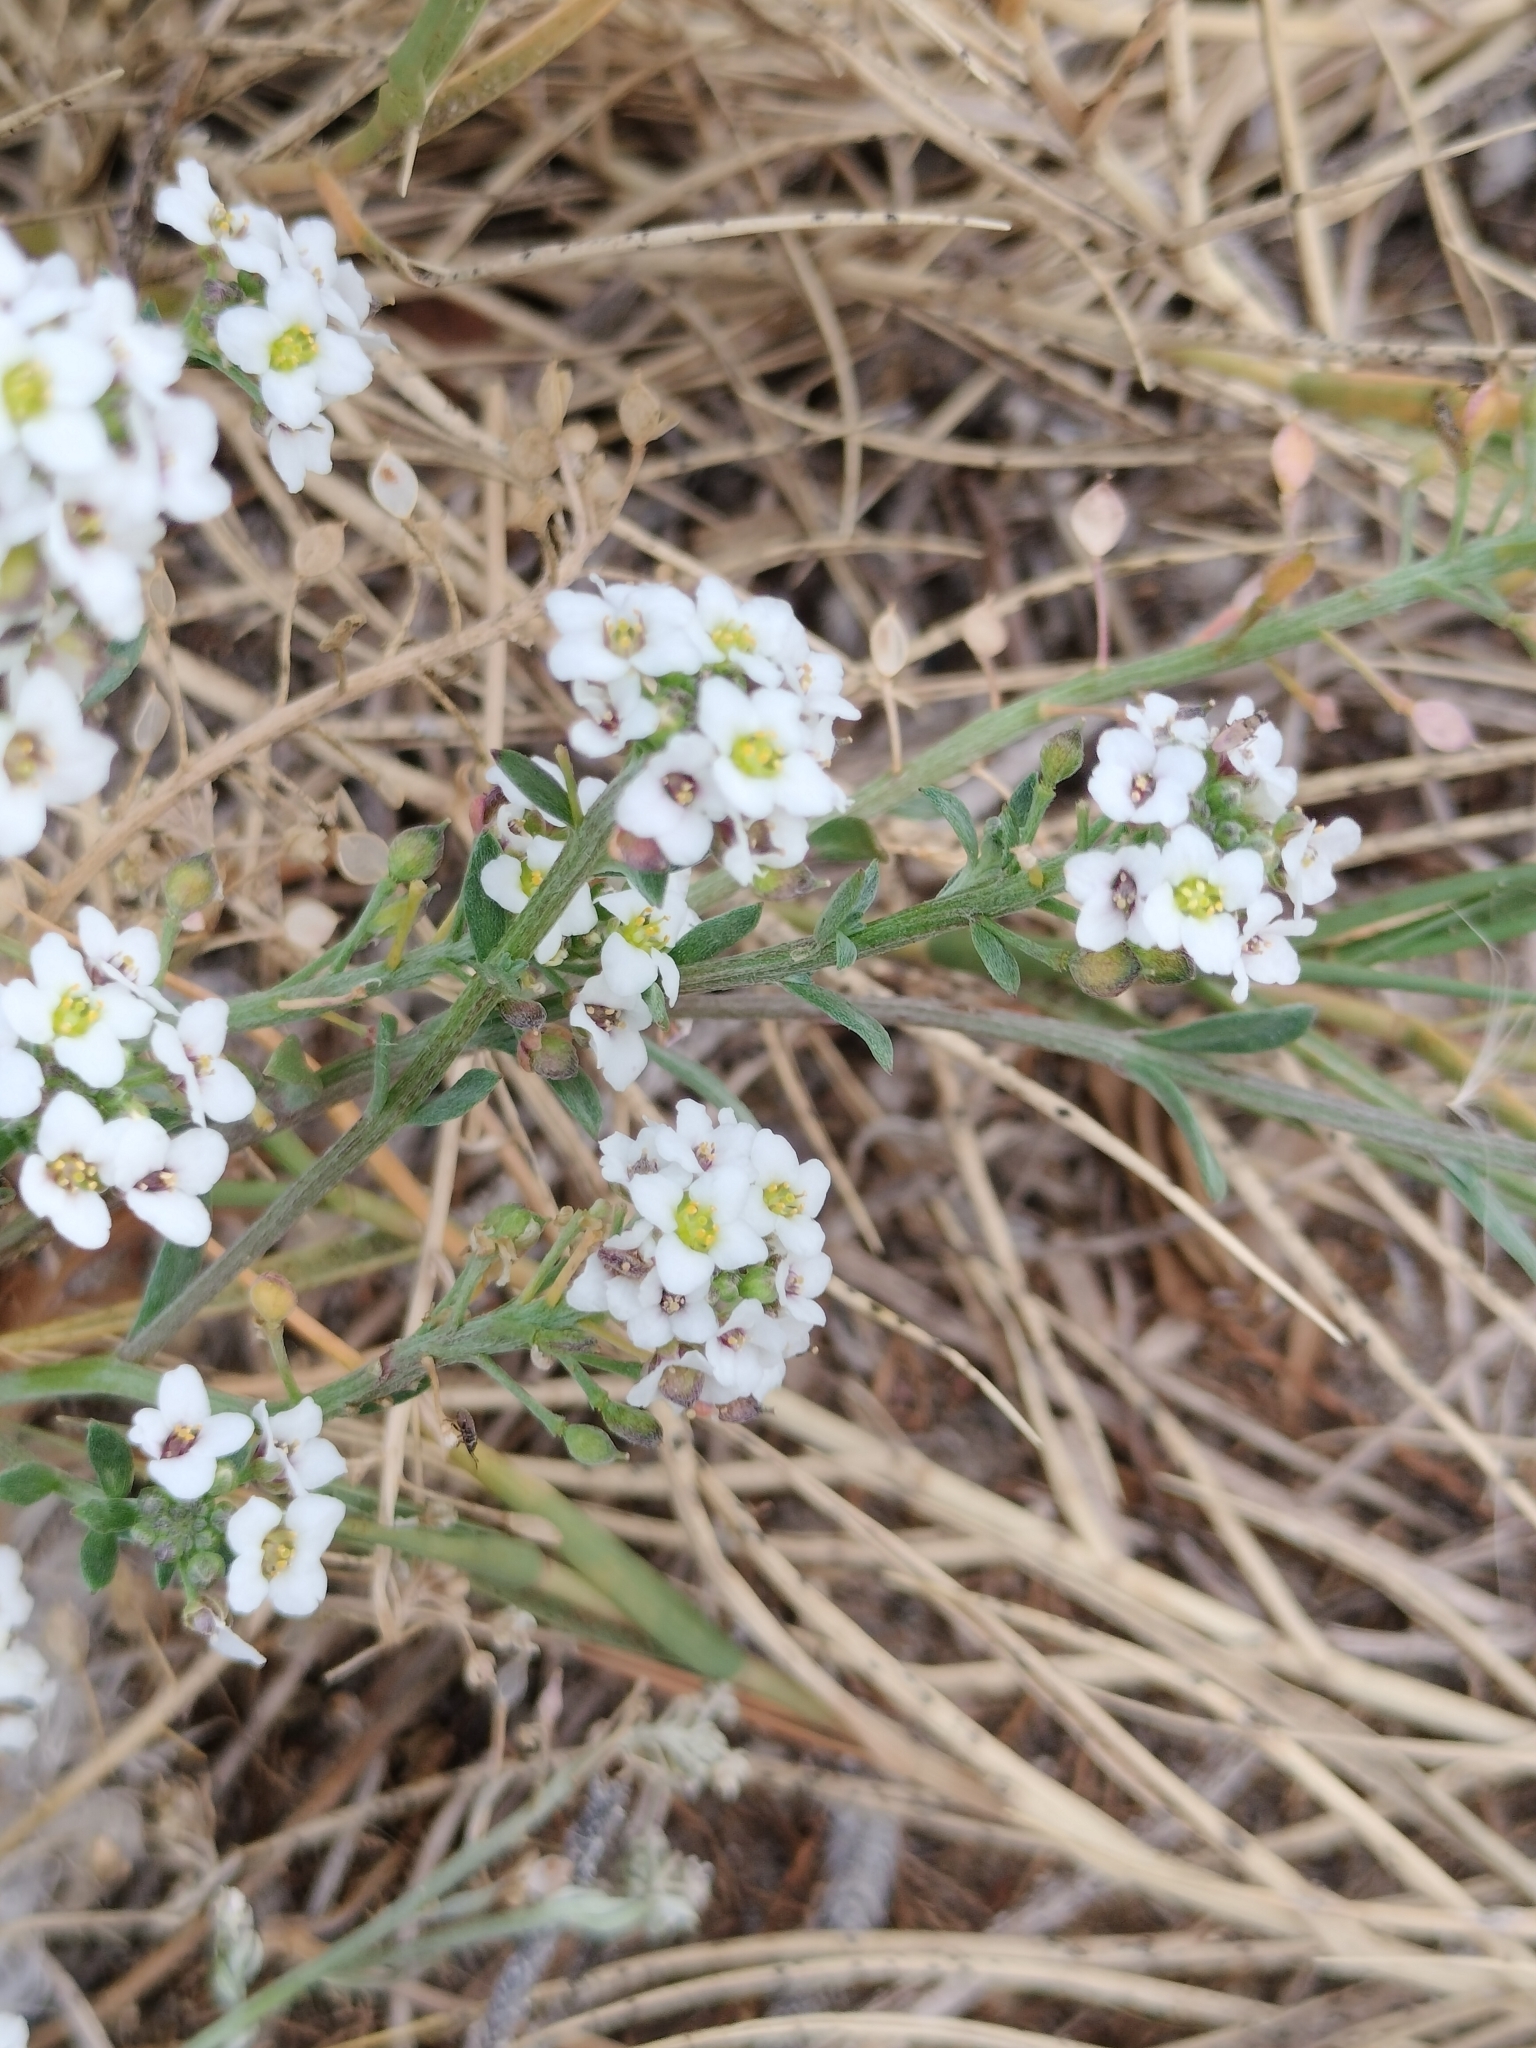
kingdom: Plantae
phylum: Tracheophyta
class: Magnoliopsida
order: Brassicales
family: Brassicaceae
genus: Lobularia
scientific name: Lobularia maritima
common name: Sweet alison
